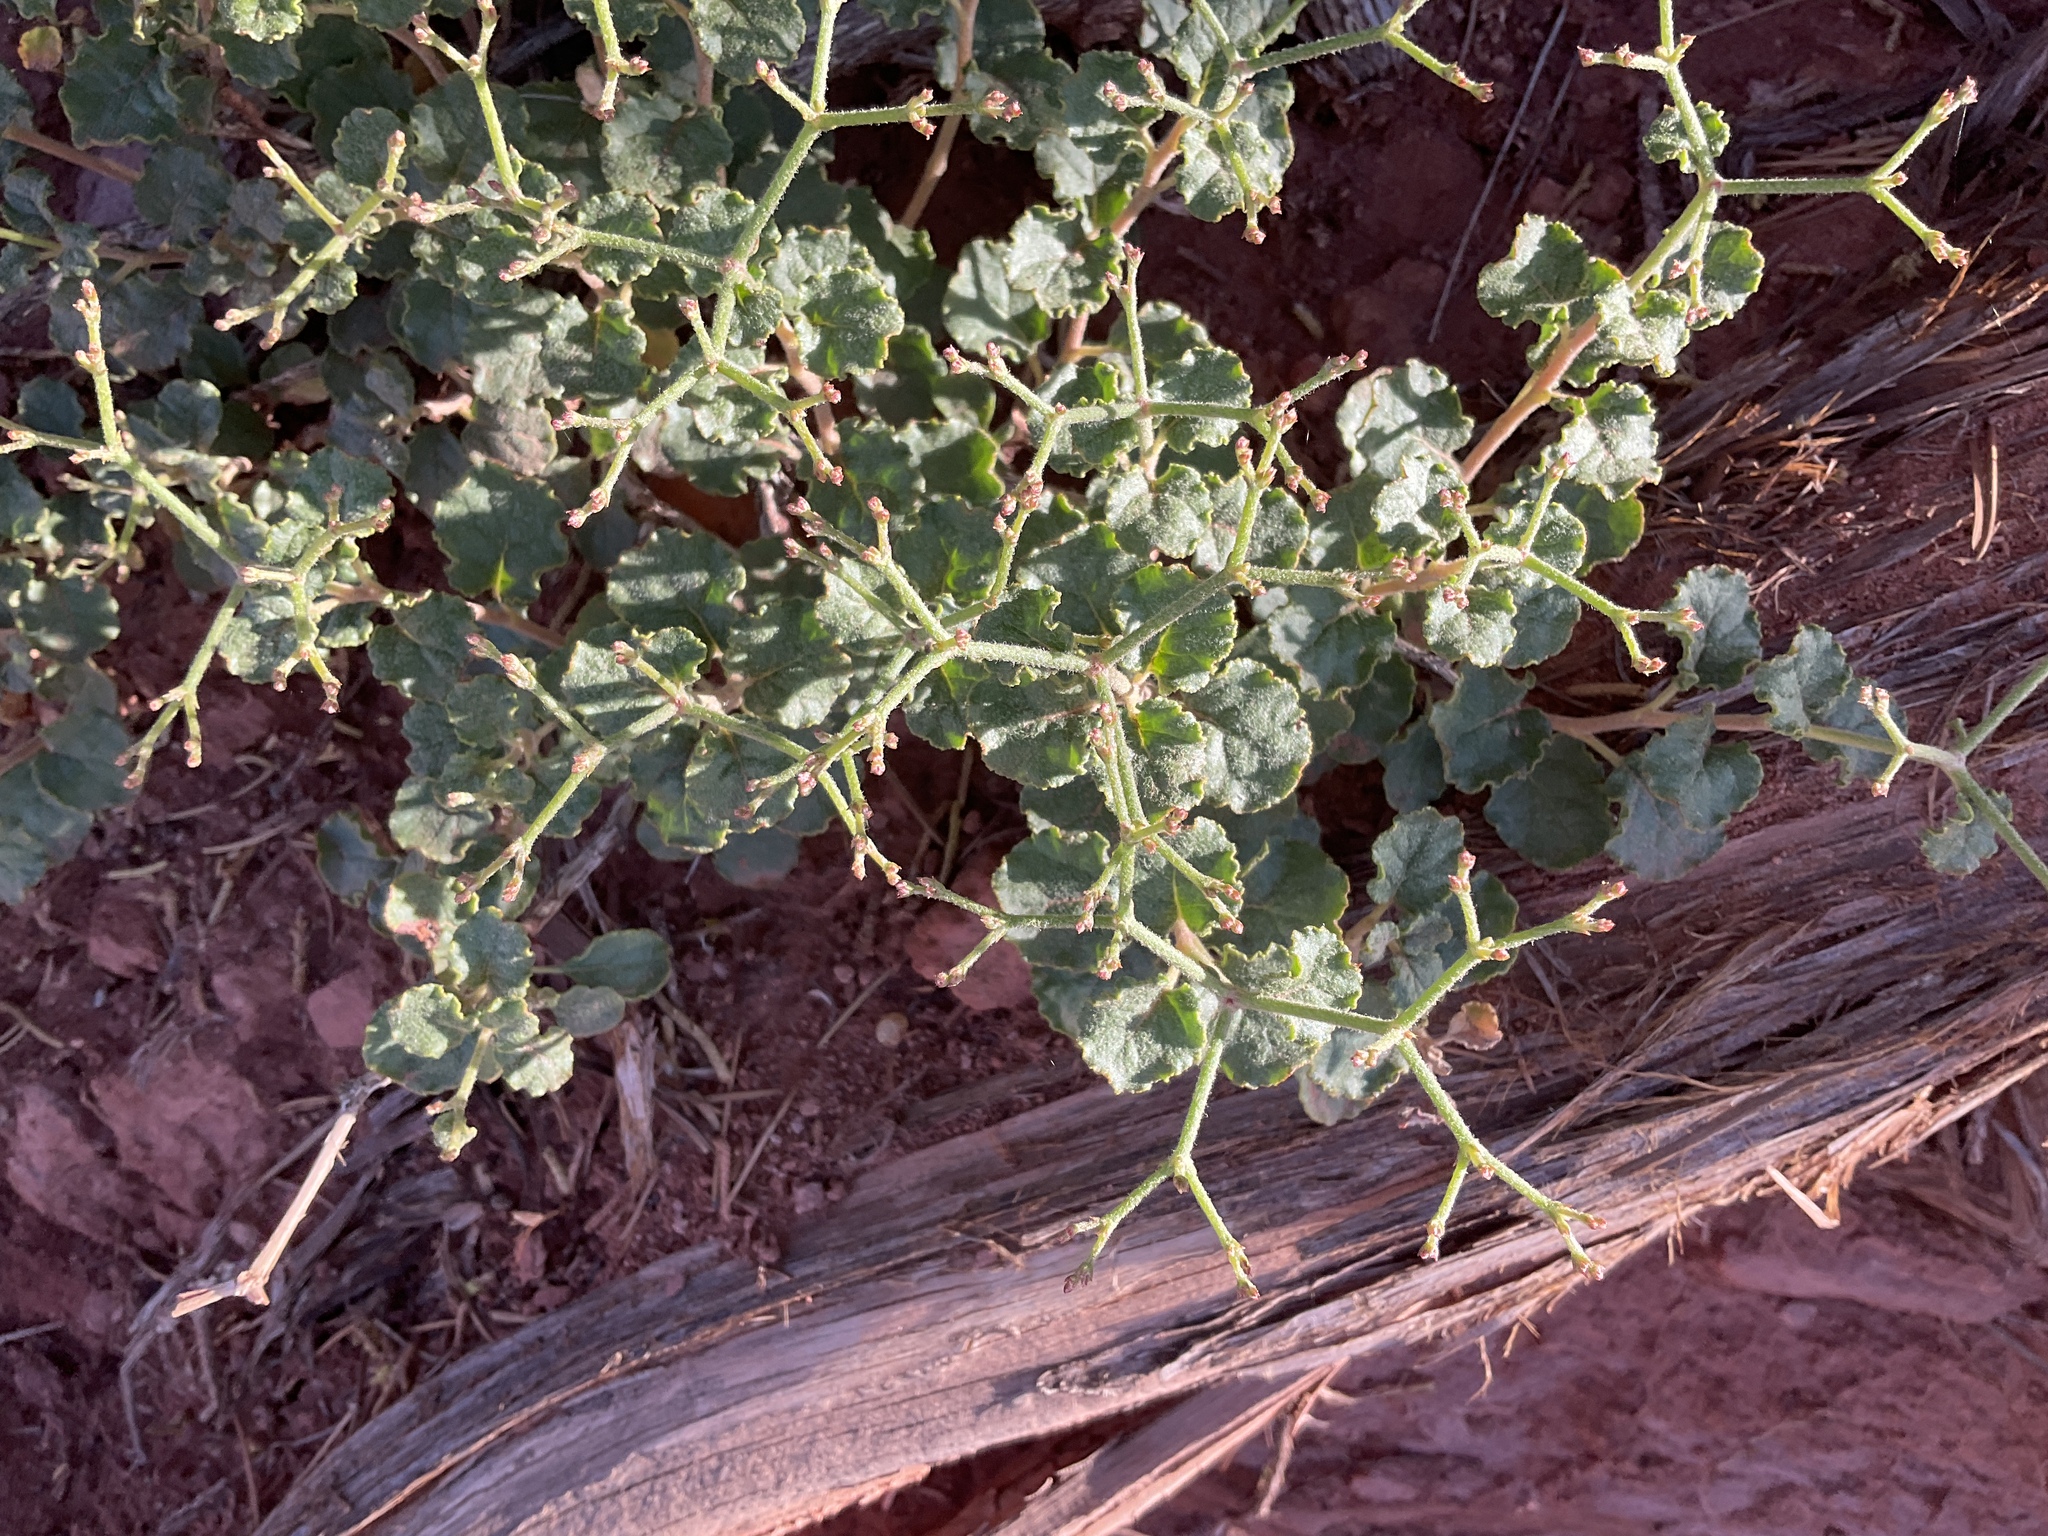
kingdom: Plantae
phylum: Tracheophyta
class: Magnoliopsida
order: Caryophyllales
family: Polygonaceae
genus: Eriogonum
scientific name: Eriogonum corymbosum
